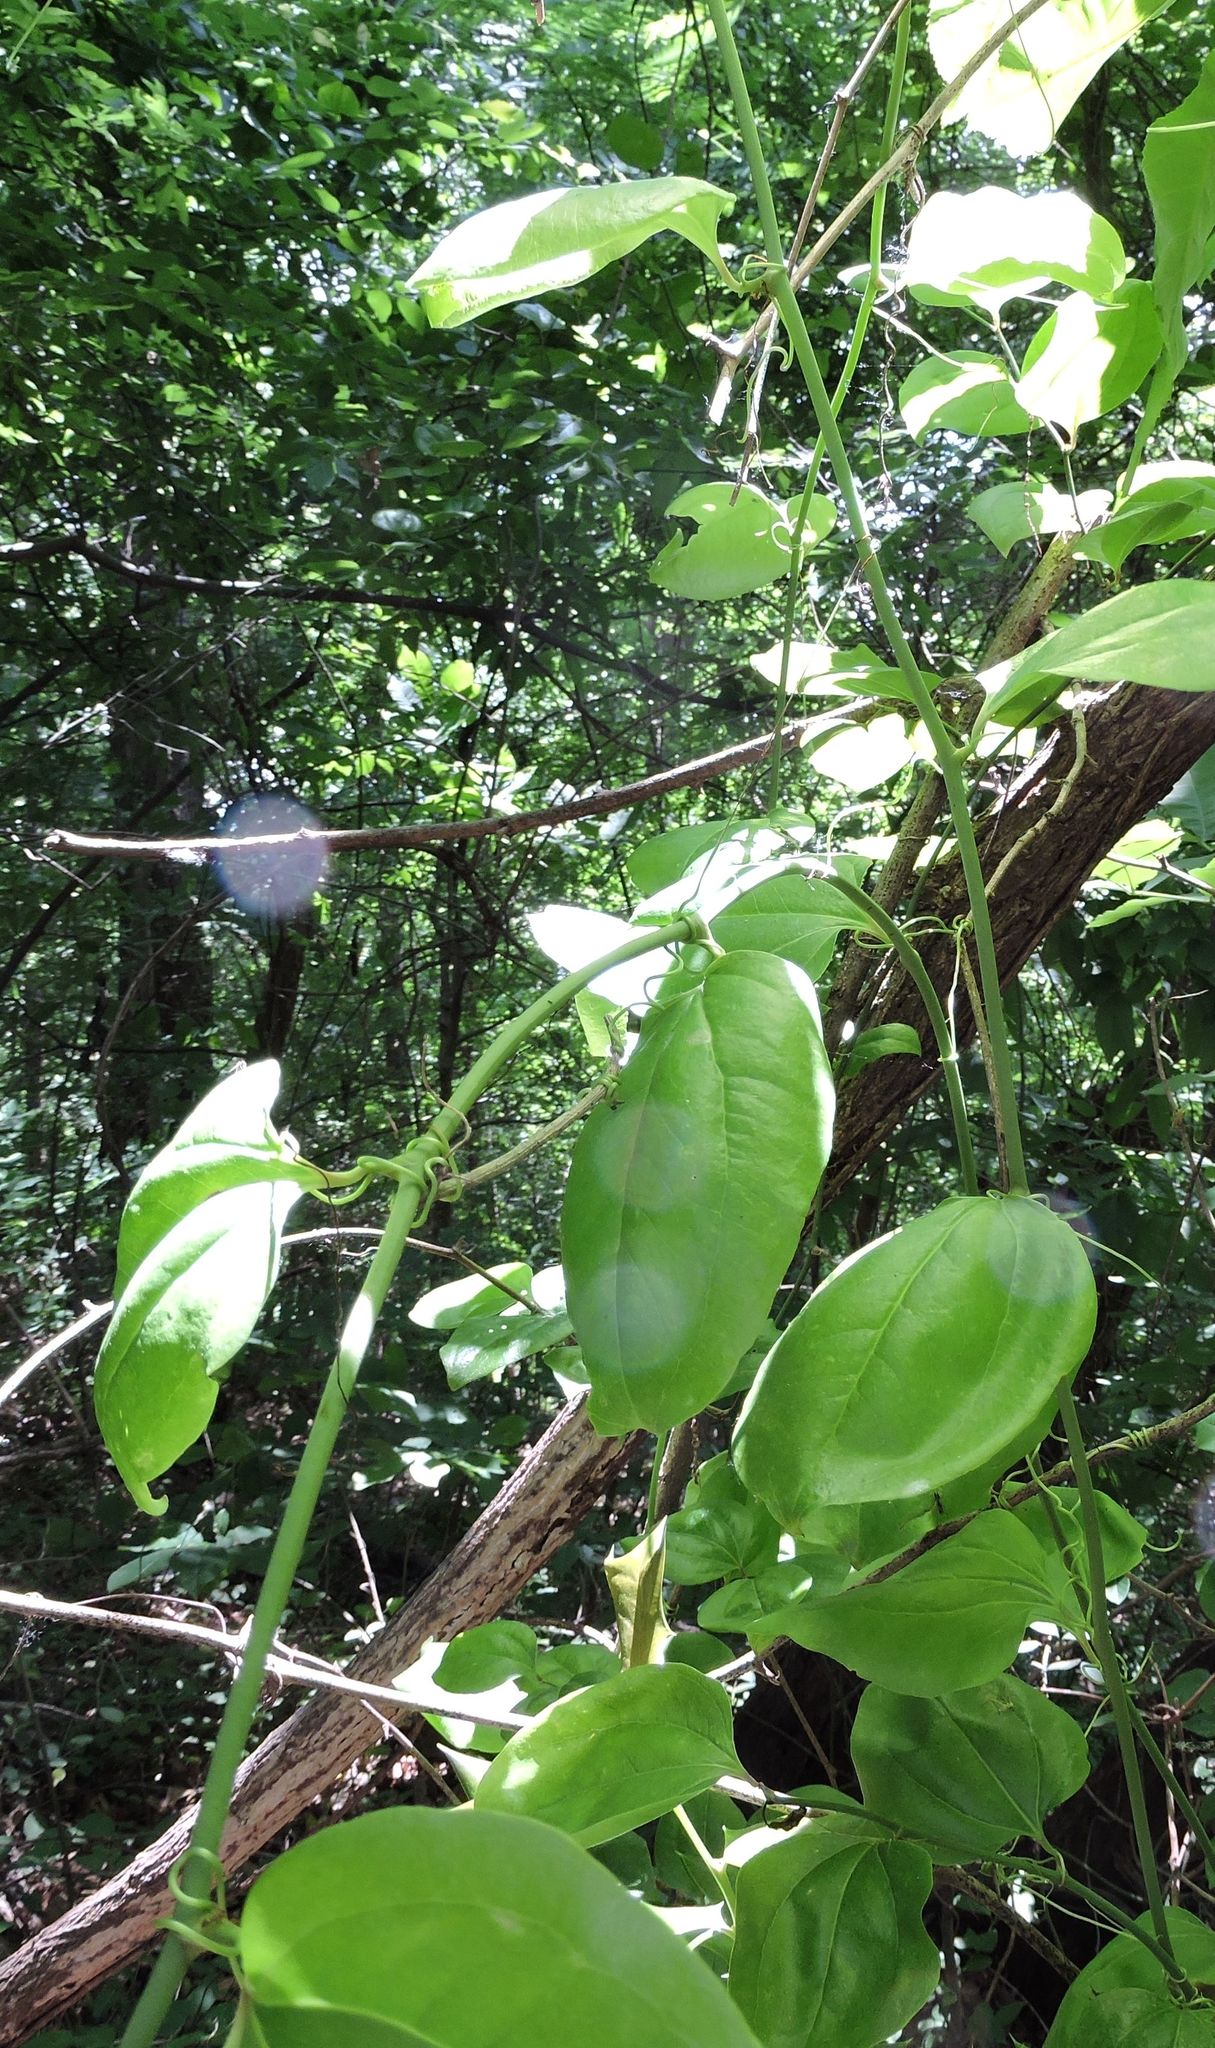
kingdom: Plantae
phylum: Tracheophyta
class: Liliopsida
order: Liliales
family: Smilacaceae
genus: Smilax
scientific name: Smilax rotundifolia
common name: Bullbriar
